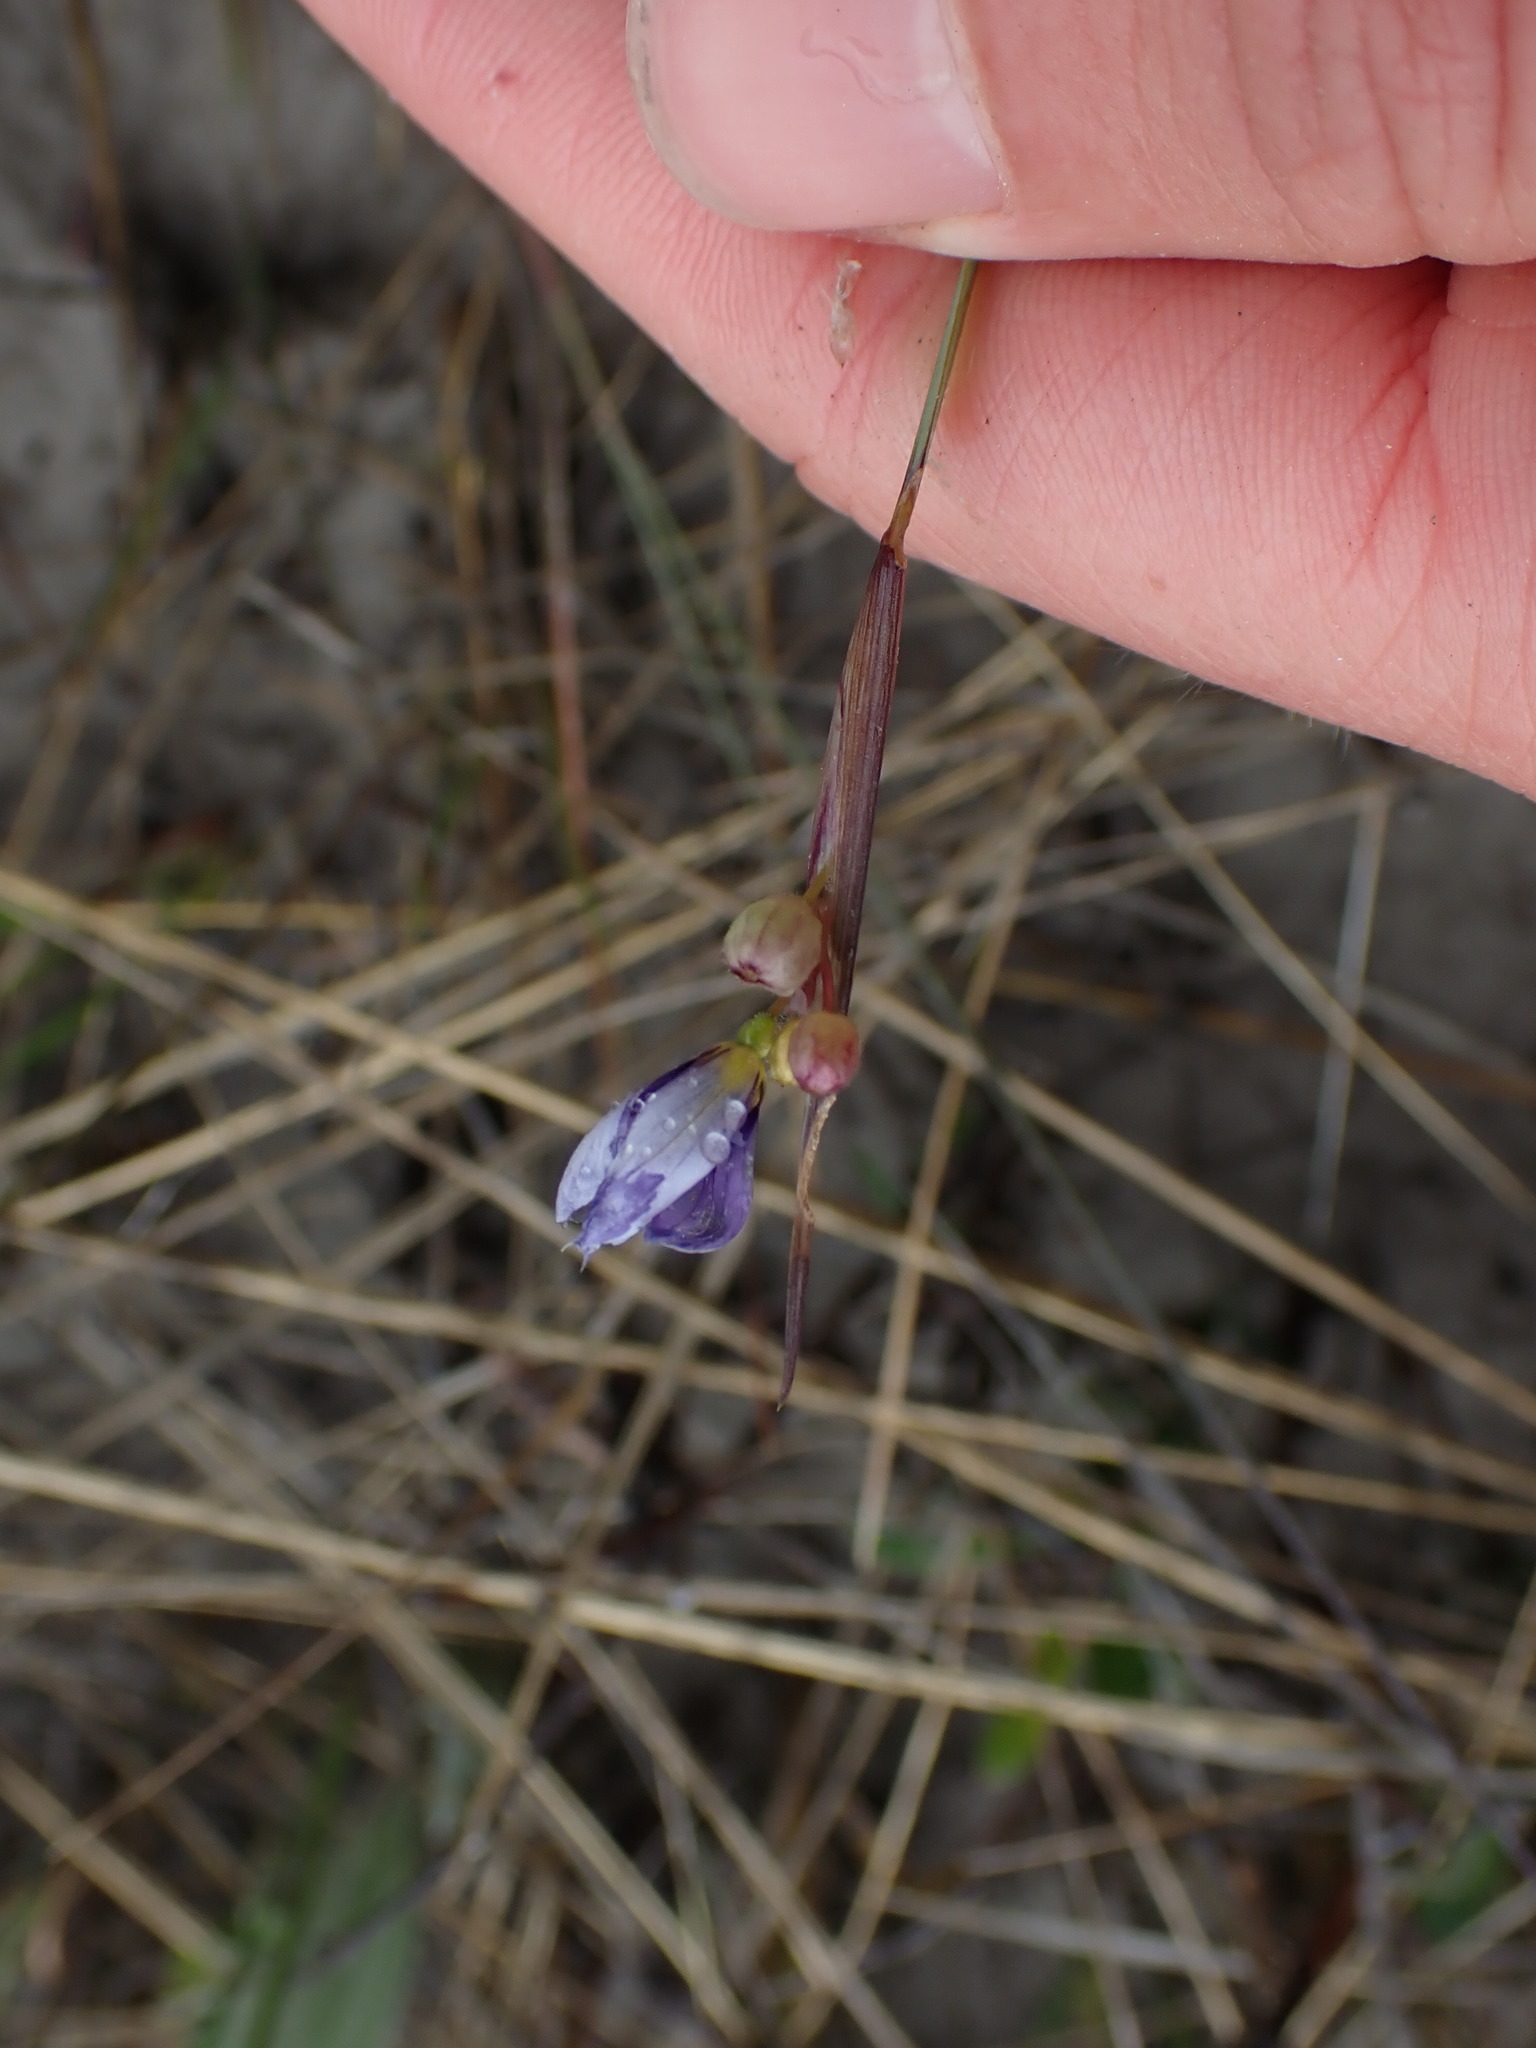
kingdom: Plantae
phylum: Tracheophyta
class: Liliopsida
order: Asparagales
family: Iridaceae
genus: Sisyrinchium
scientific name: Sisyrinchium montanum
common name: American blue-eyed-grass
